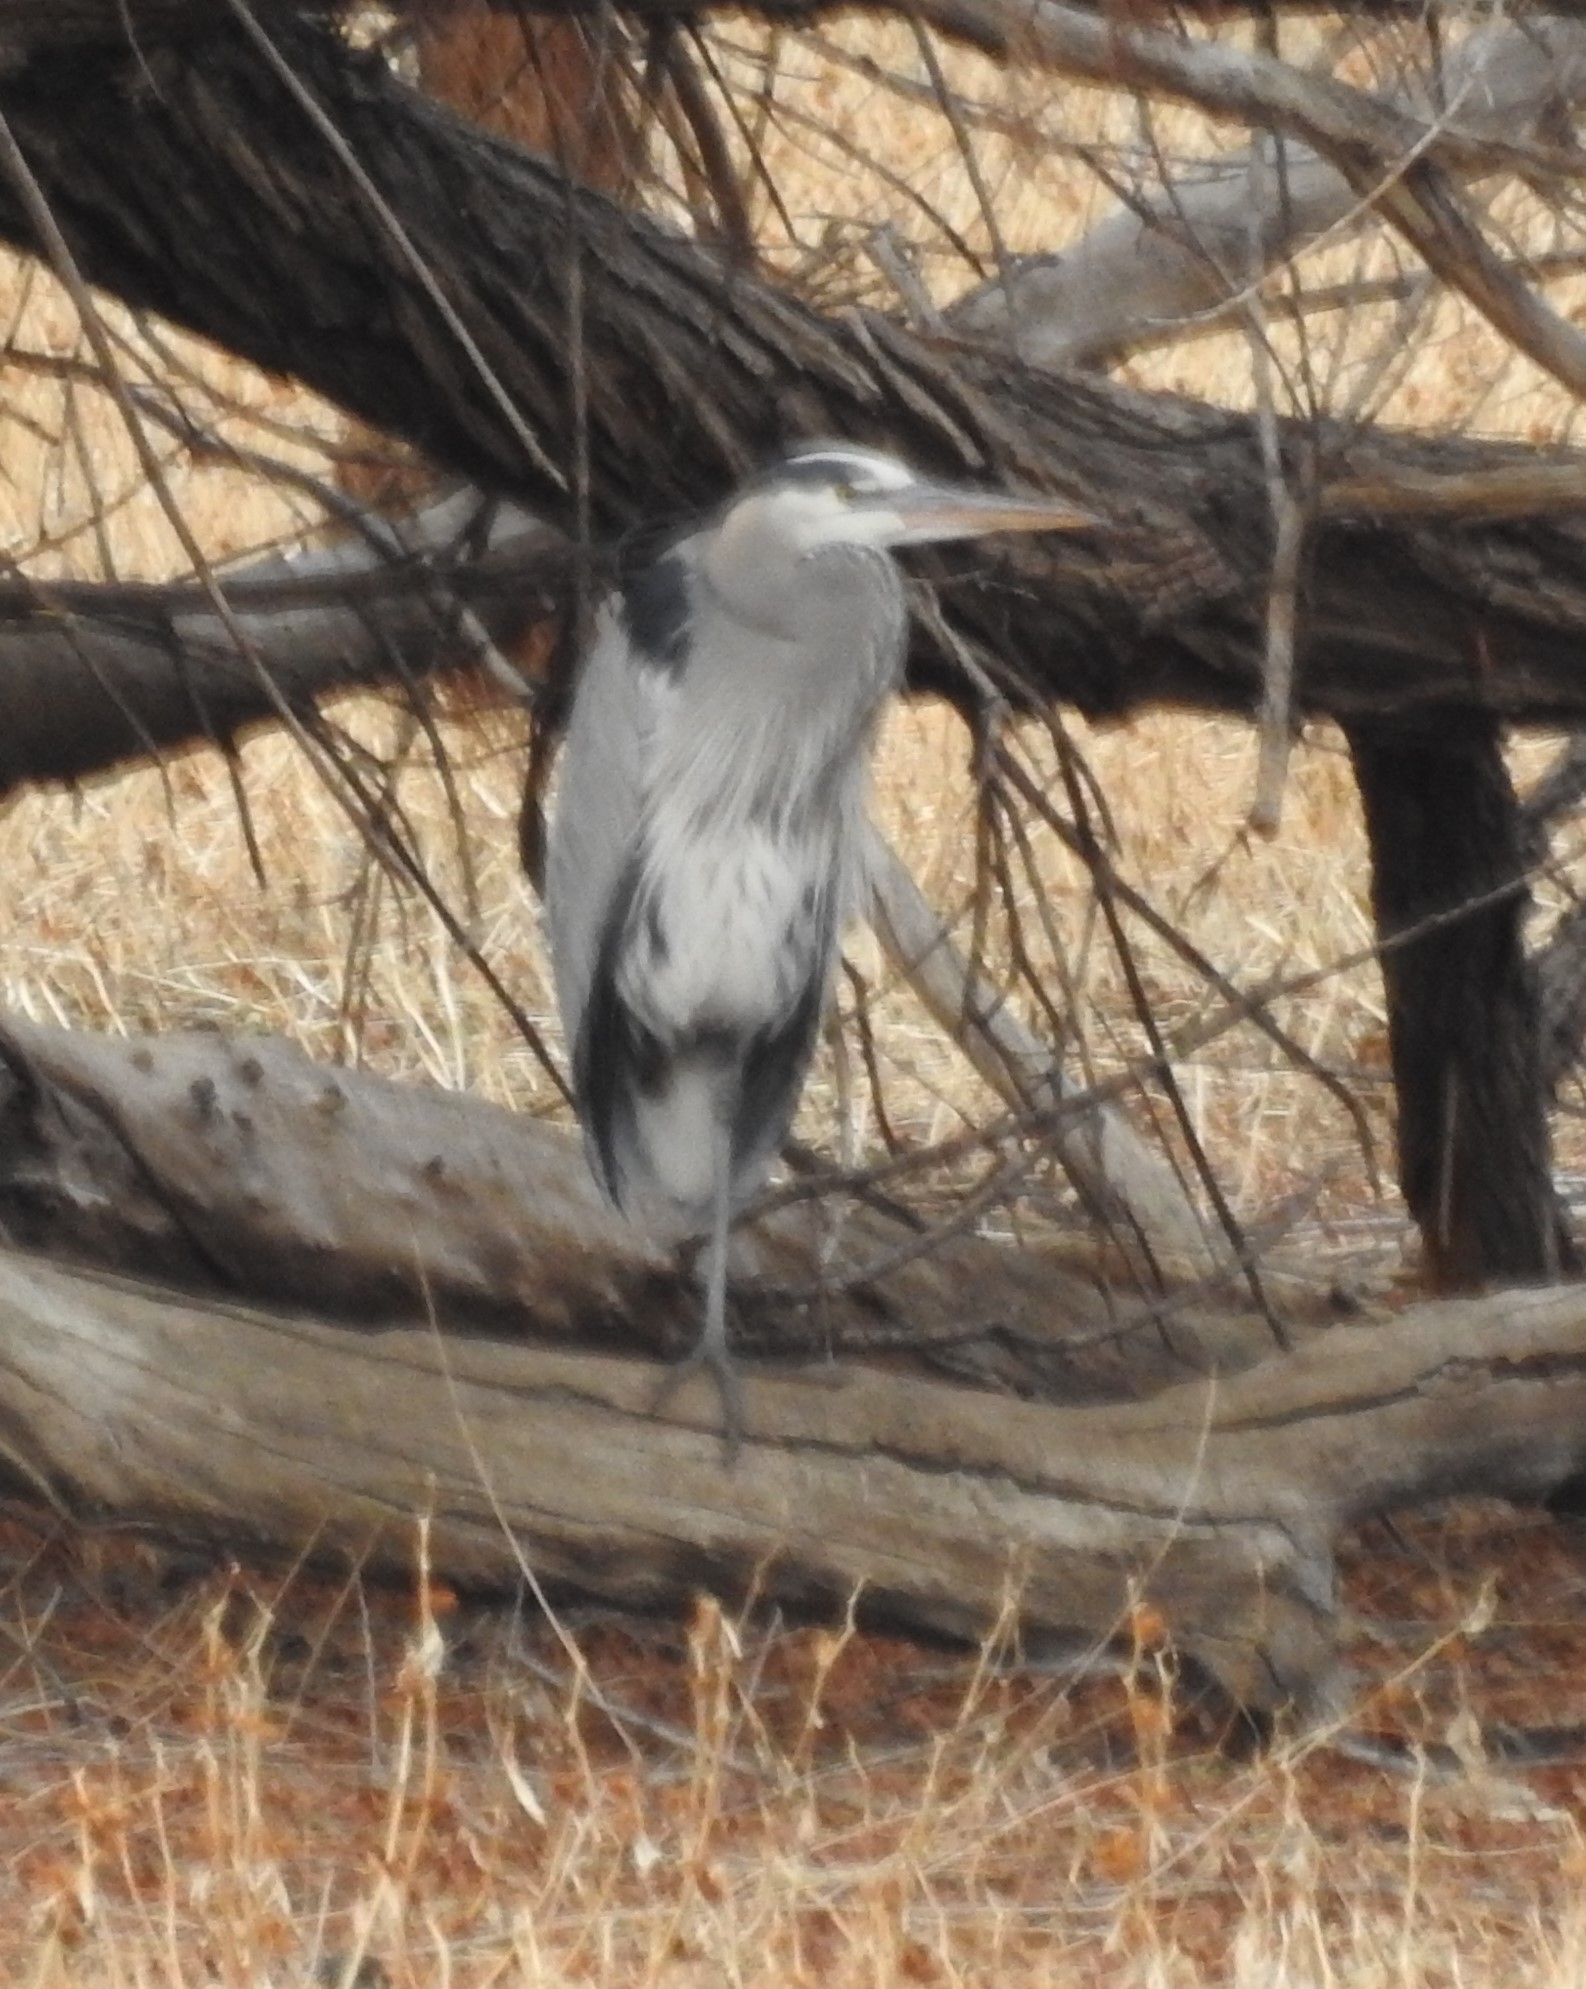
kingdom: Animalia
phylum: Chordata
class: Aves
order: Pelecaniformes
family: Ardeidae
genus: Ardea
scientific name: Ardea herodias
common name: Great blue heron
